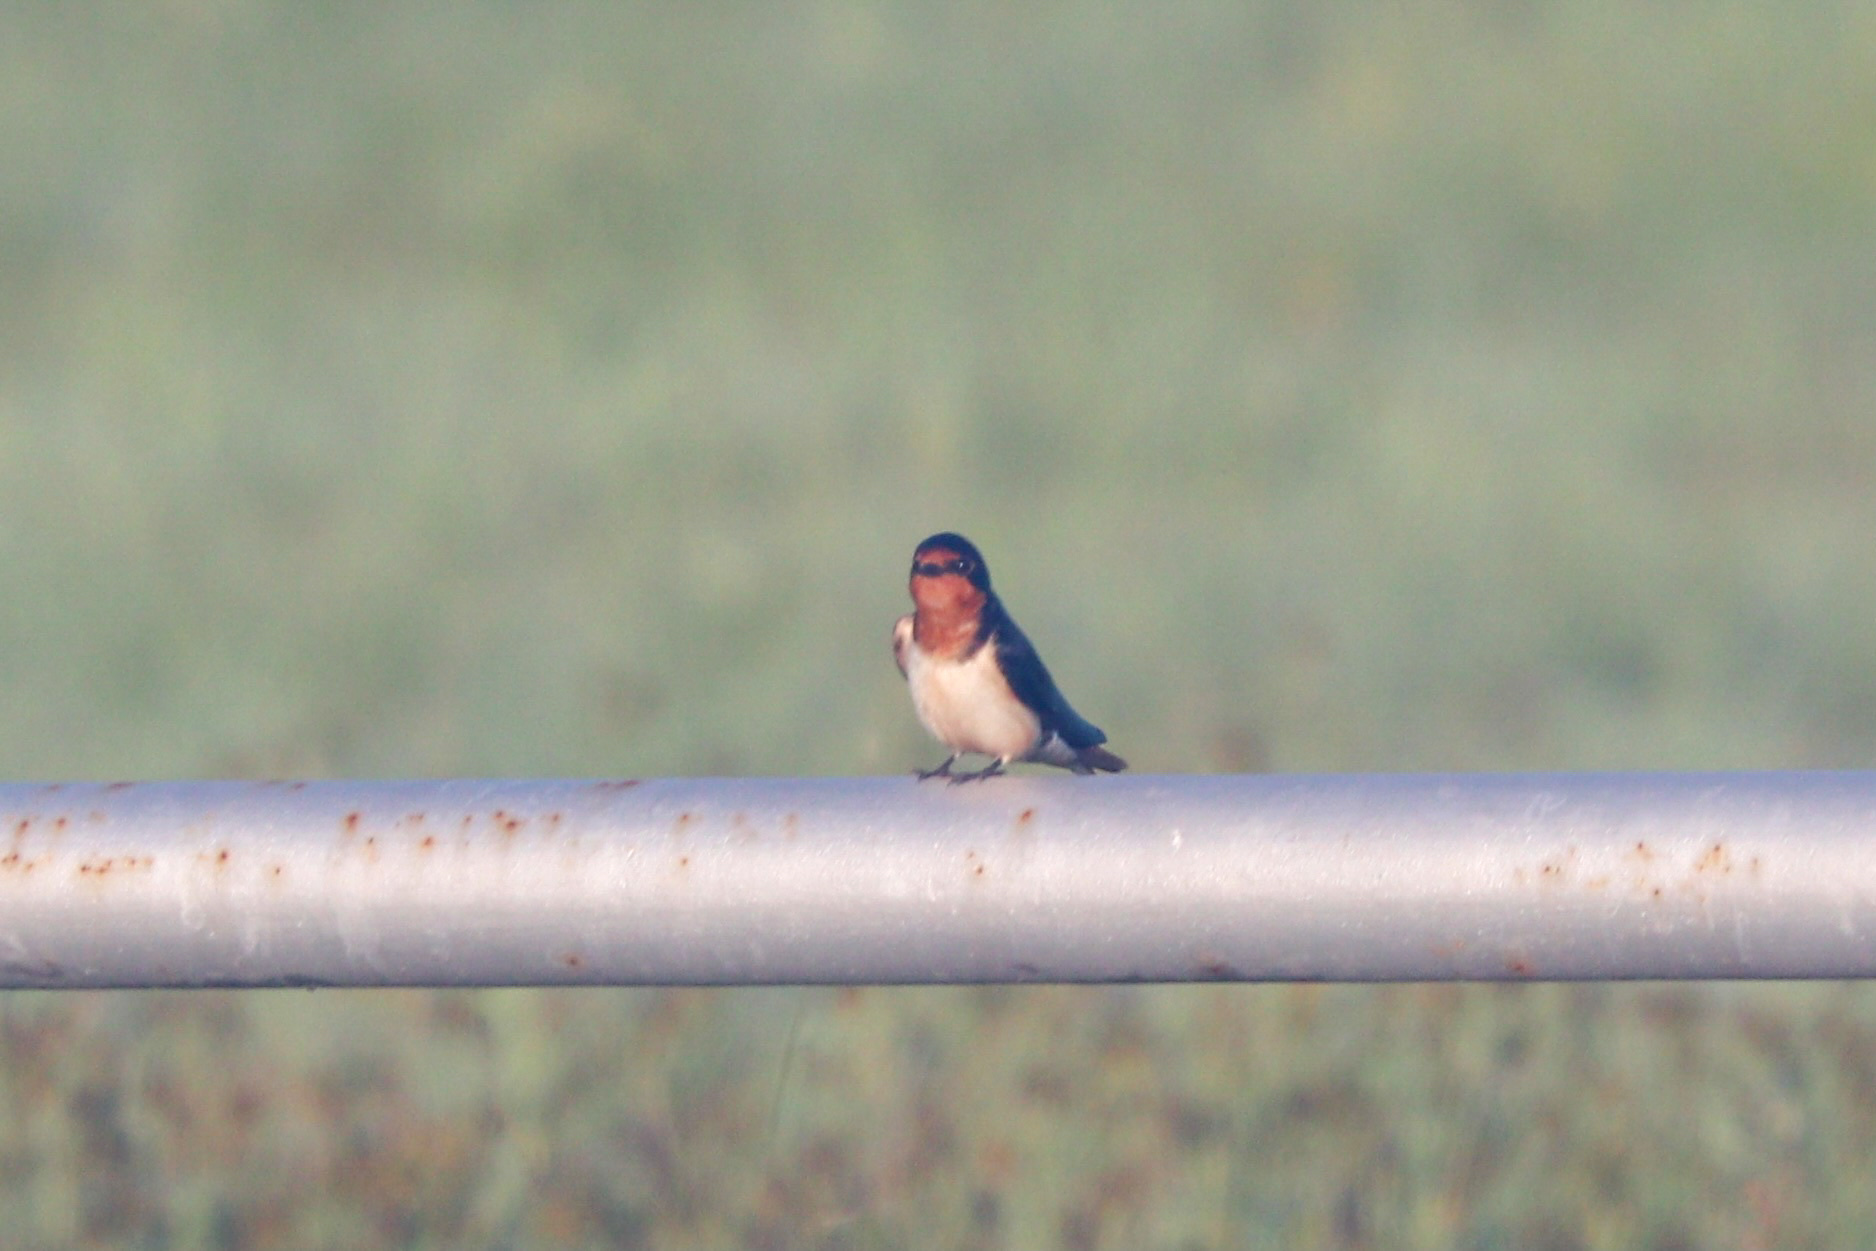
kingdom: Animalia
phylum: Chordata
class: Aves
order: Passeriformes
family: Hirundinidae
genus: Hirundo
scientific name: Hirundo rustica
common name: Barn swallow
